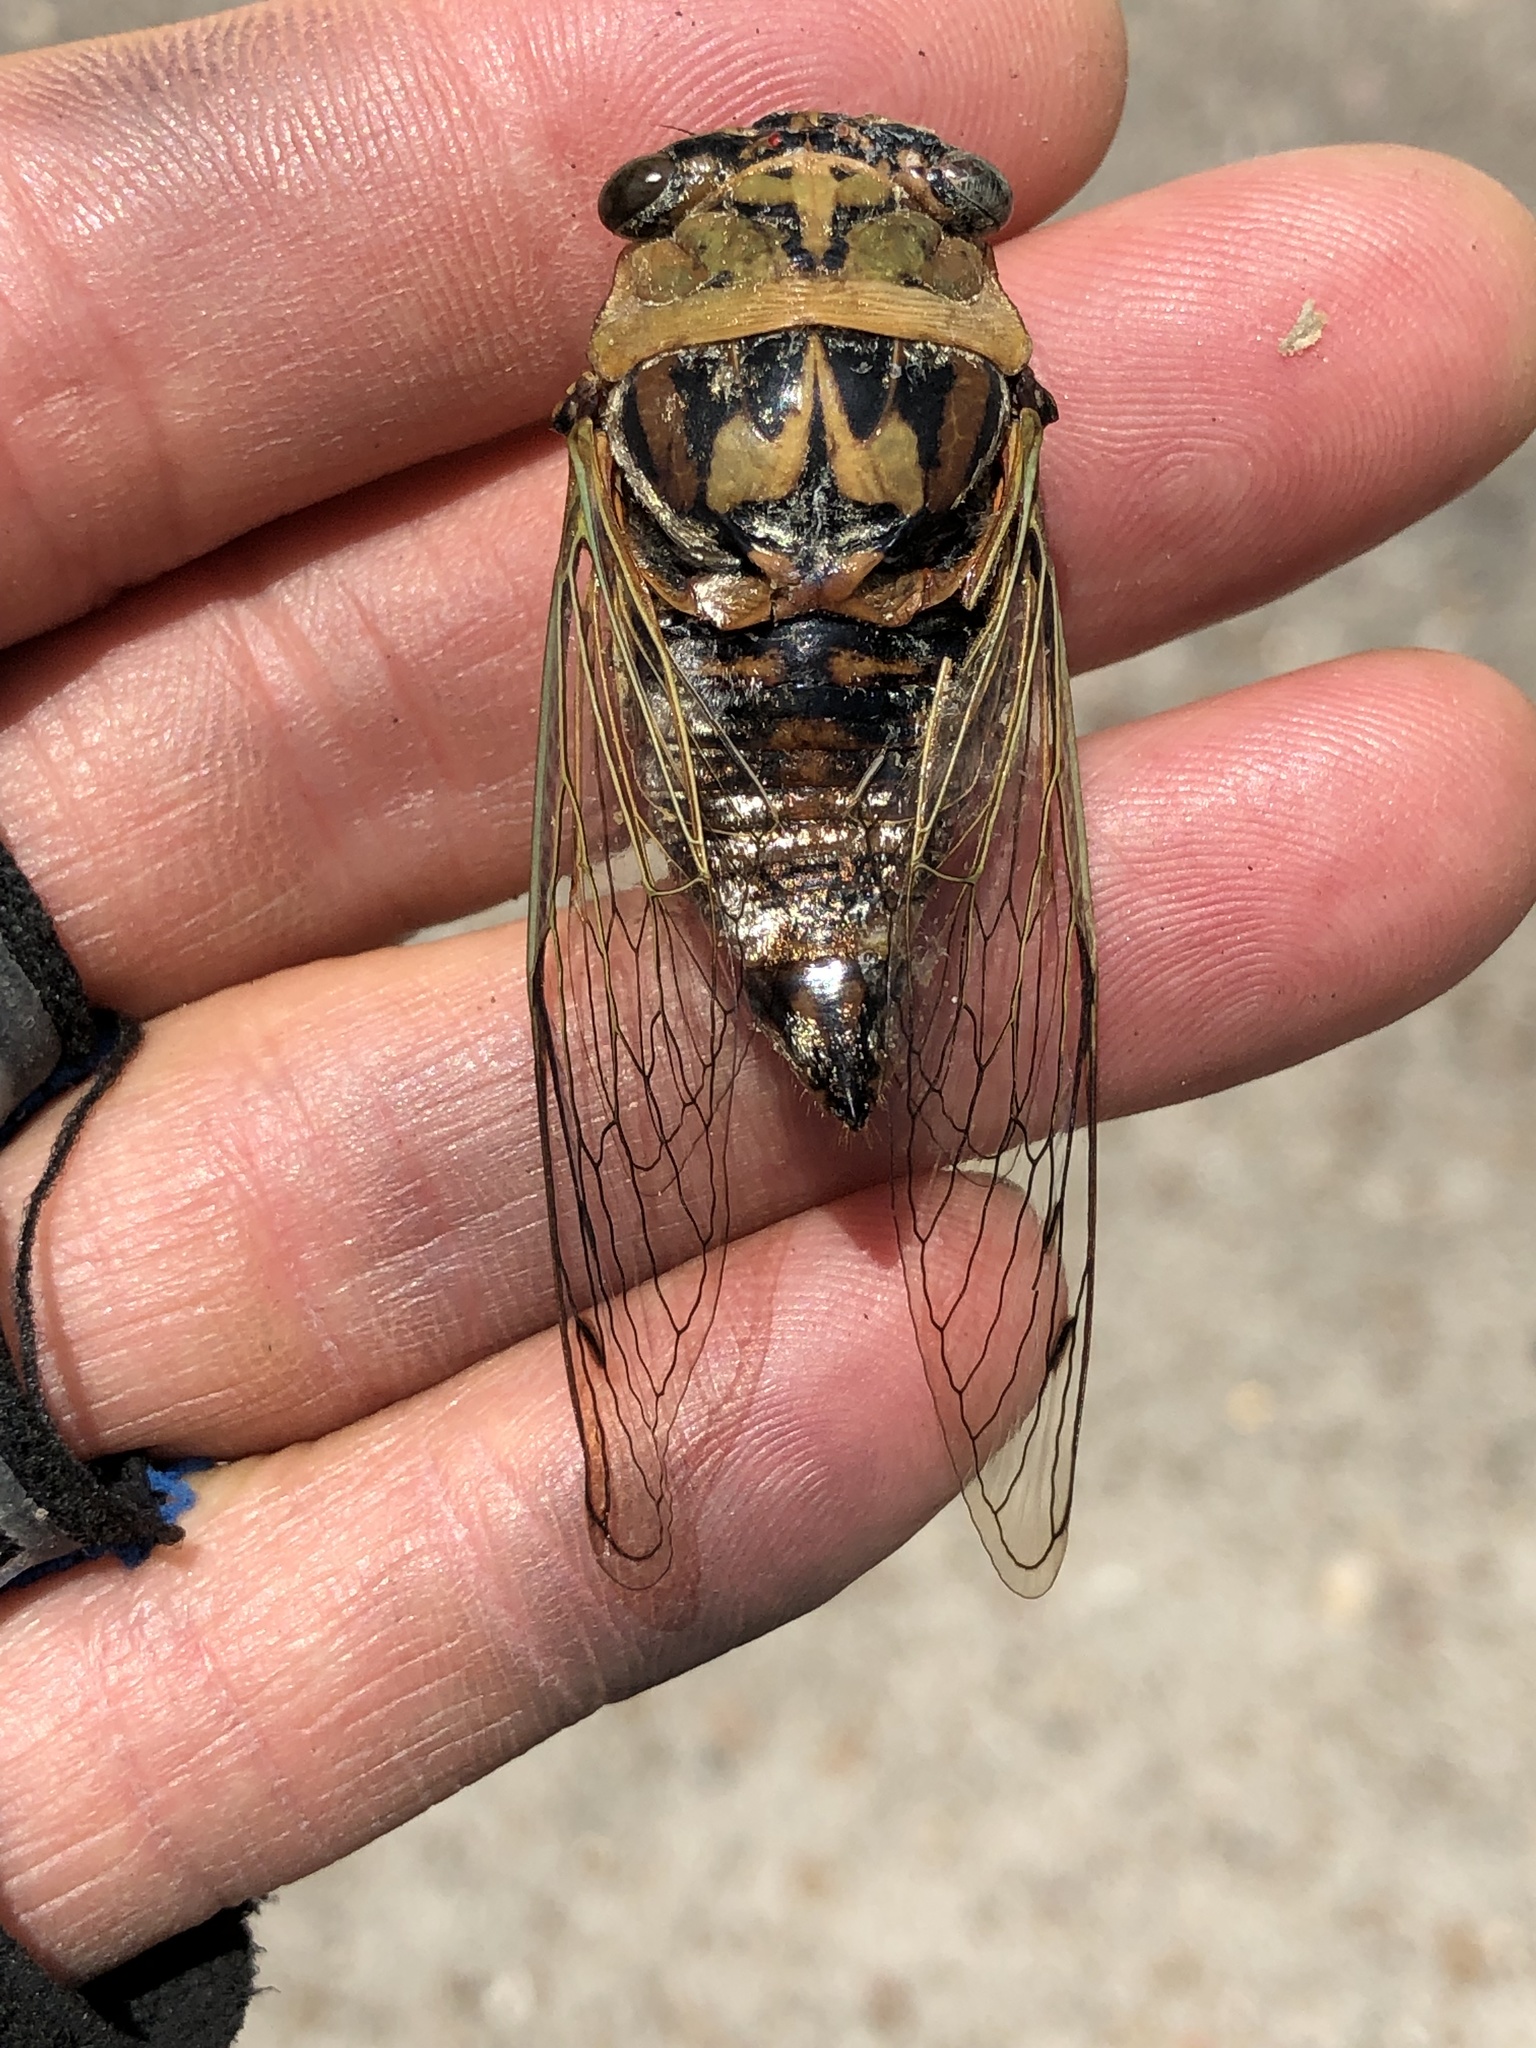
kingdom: Animalia
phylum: Arthropoda
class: Insecta
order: Hemiptera
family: Cicadidae
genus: Megatibicen
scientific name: Megatibicen resh
